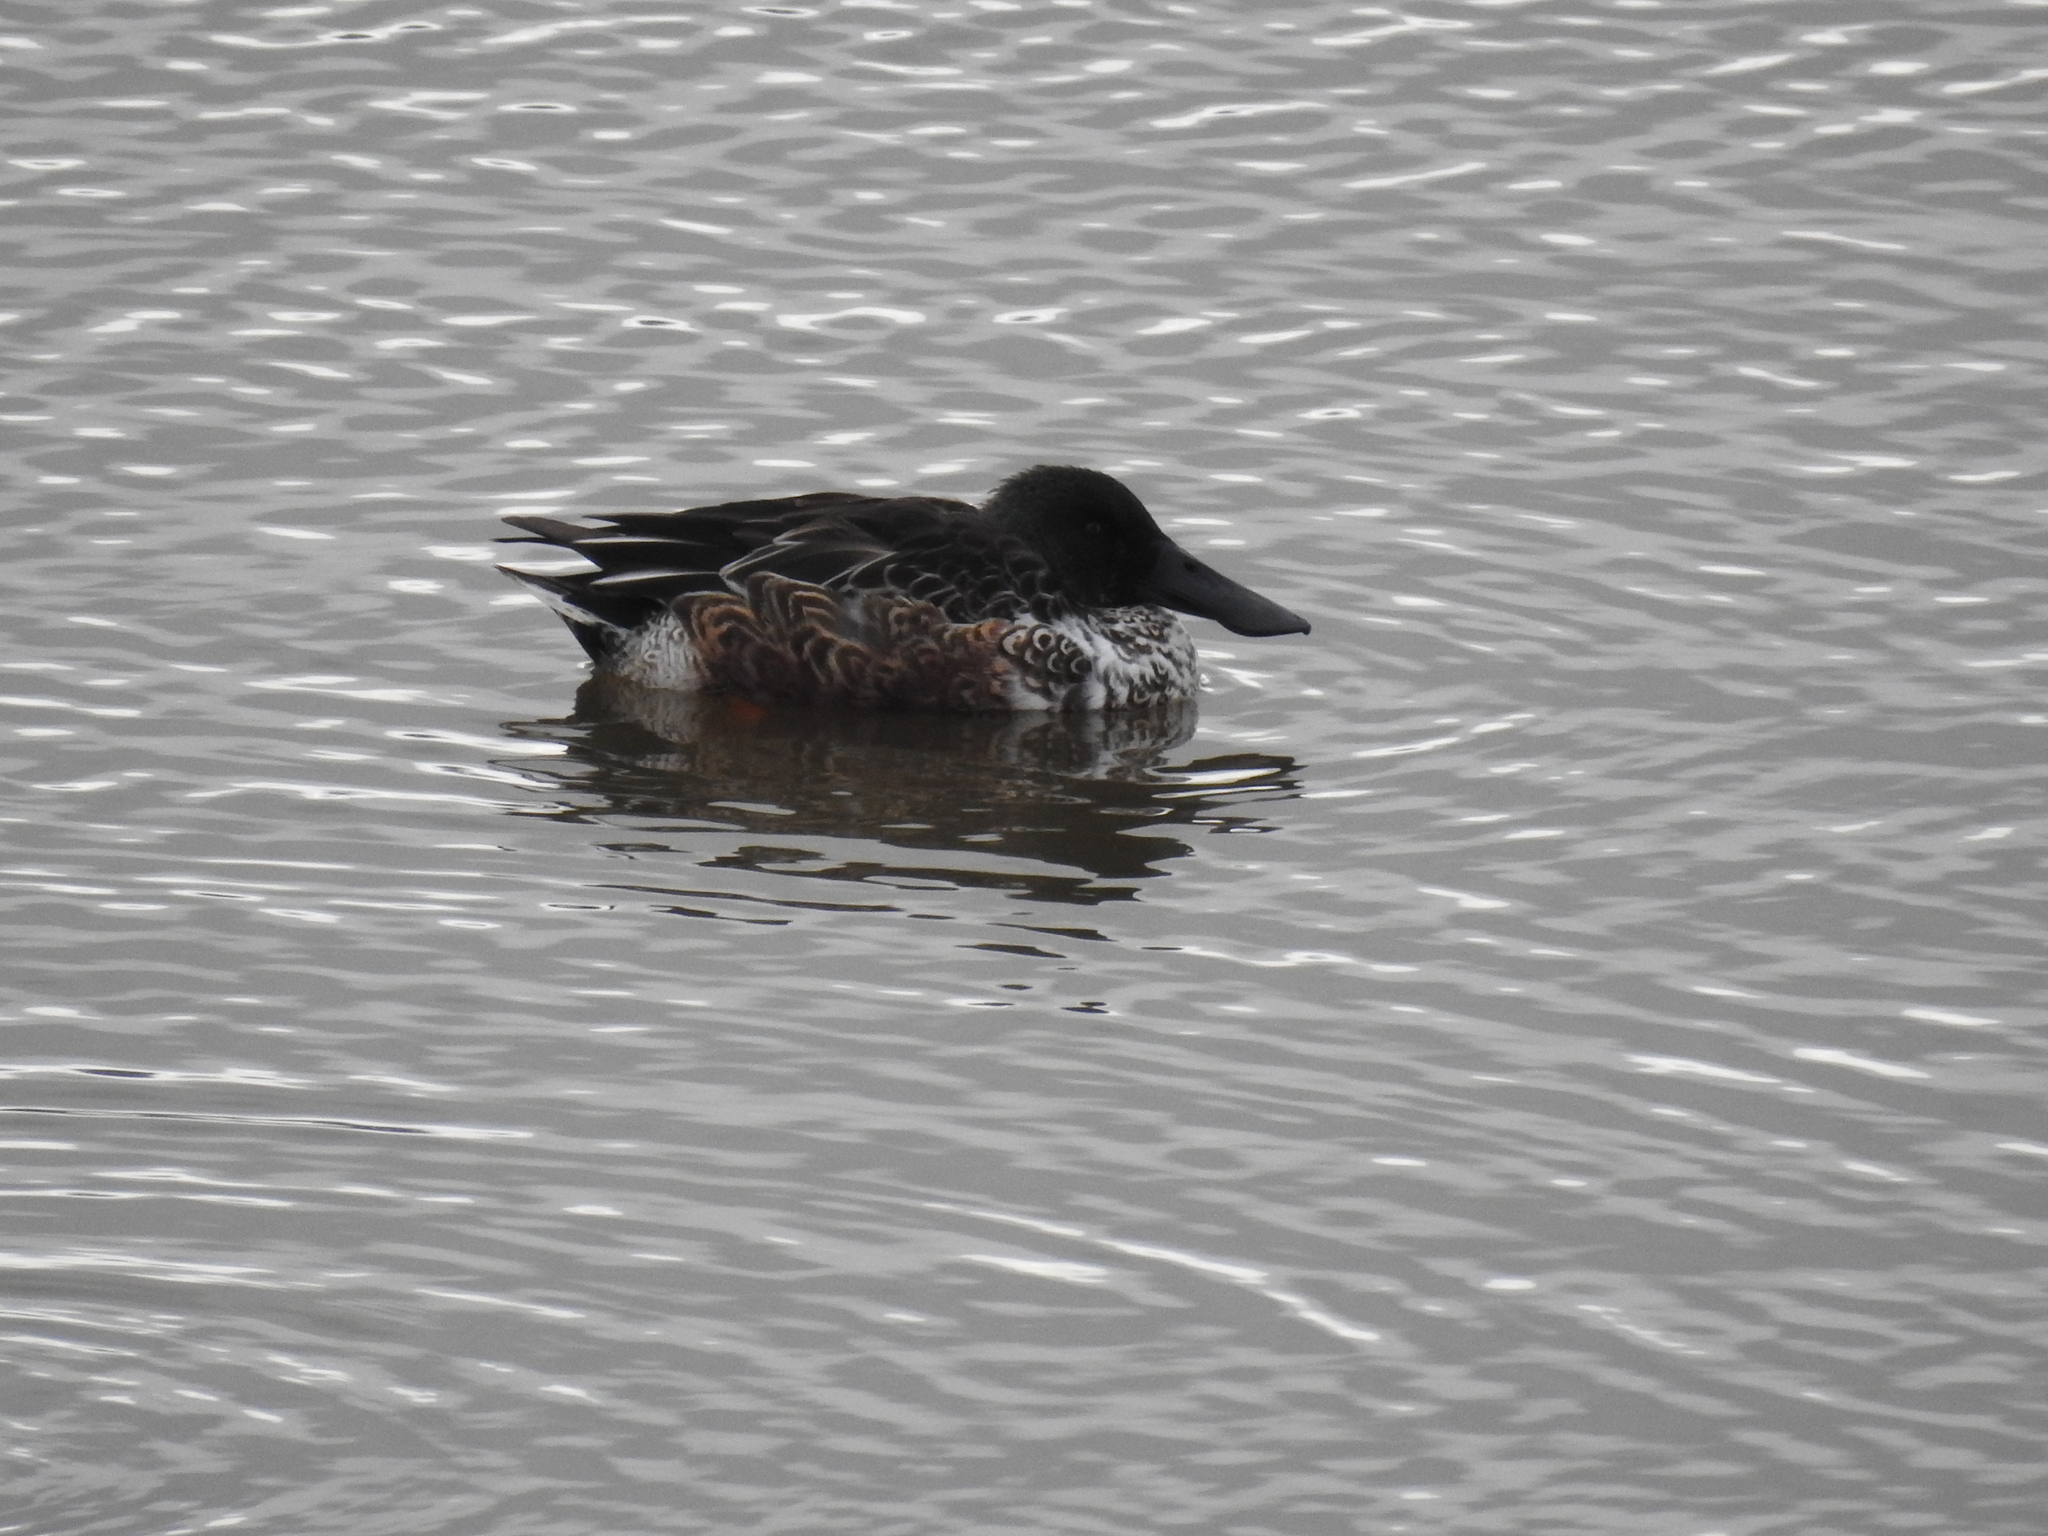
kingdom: Animalia
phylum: Chordata
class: Aves
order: Anseriformes
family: Anatidae
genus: Spatula
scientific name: Spatula clypeata
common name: Northern shoveler
